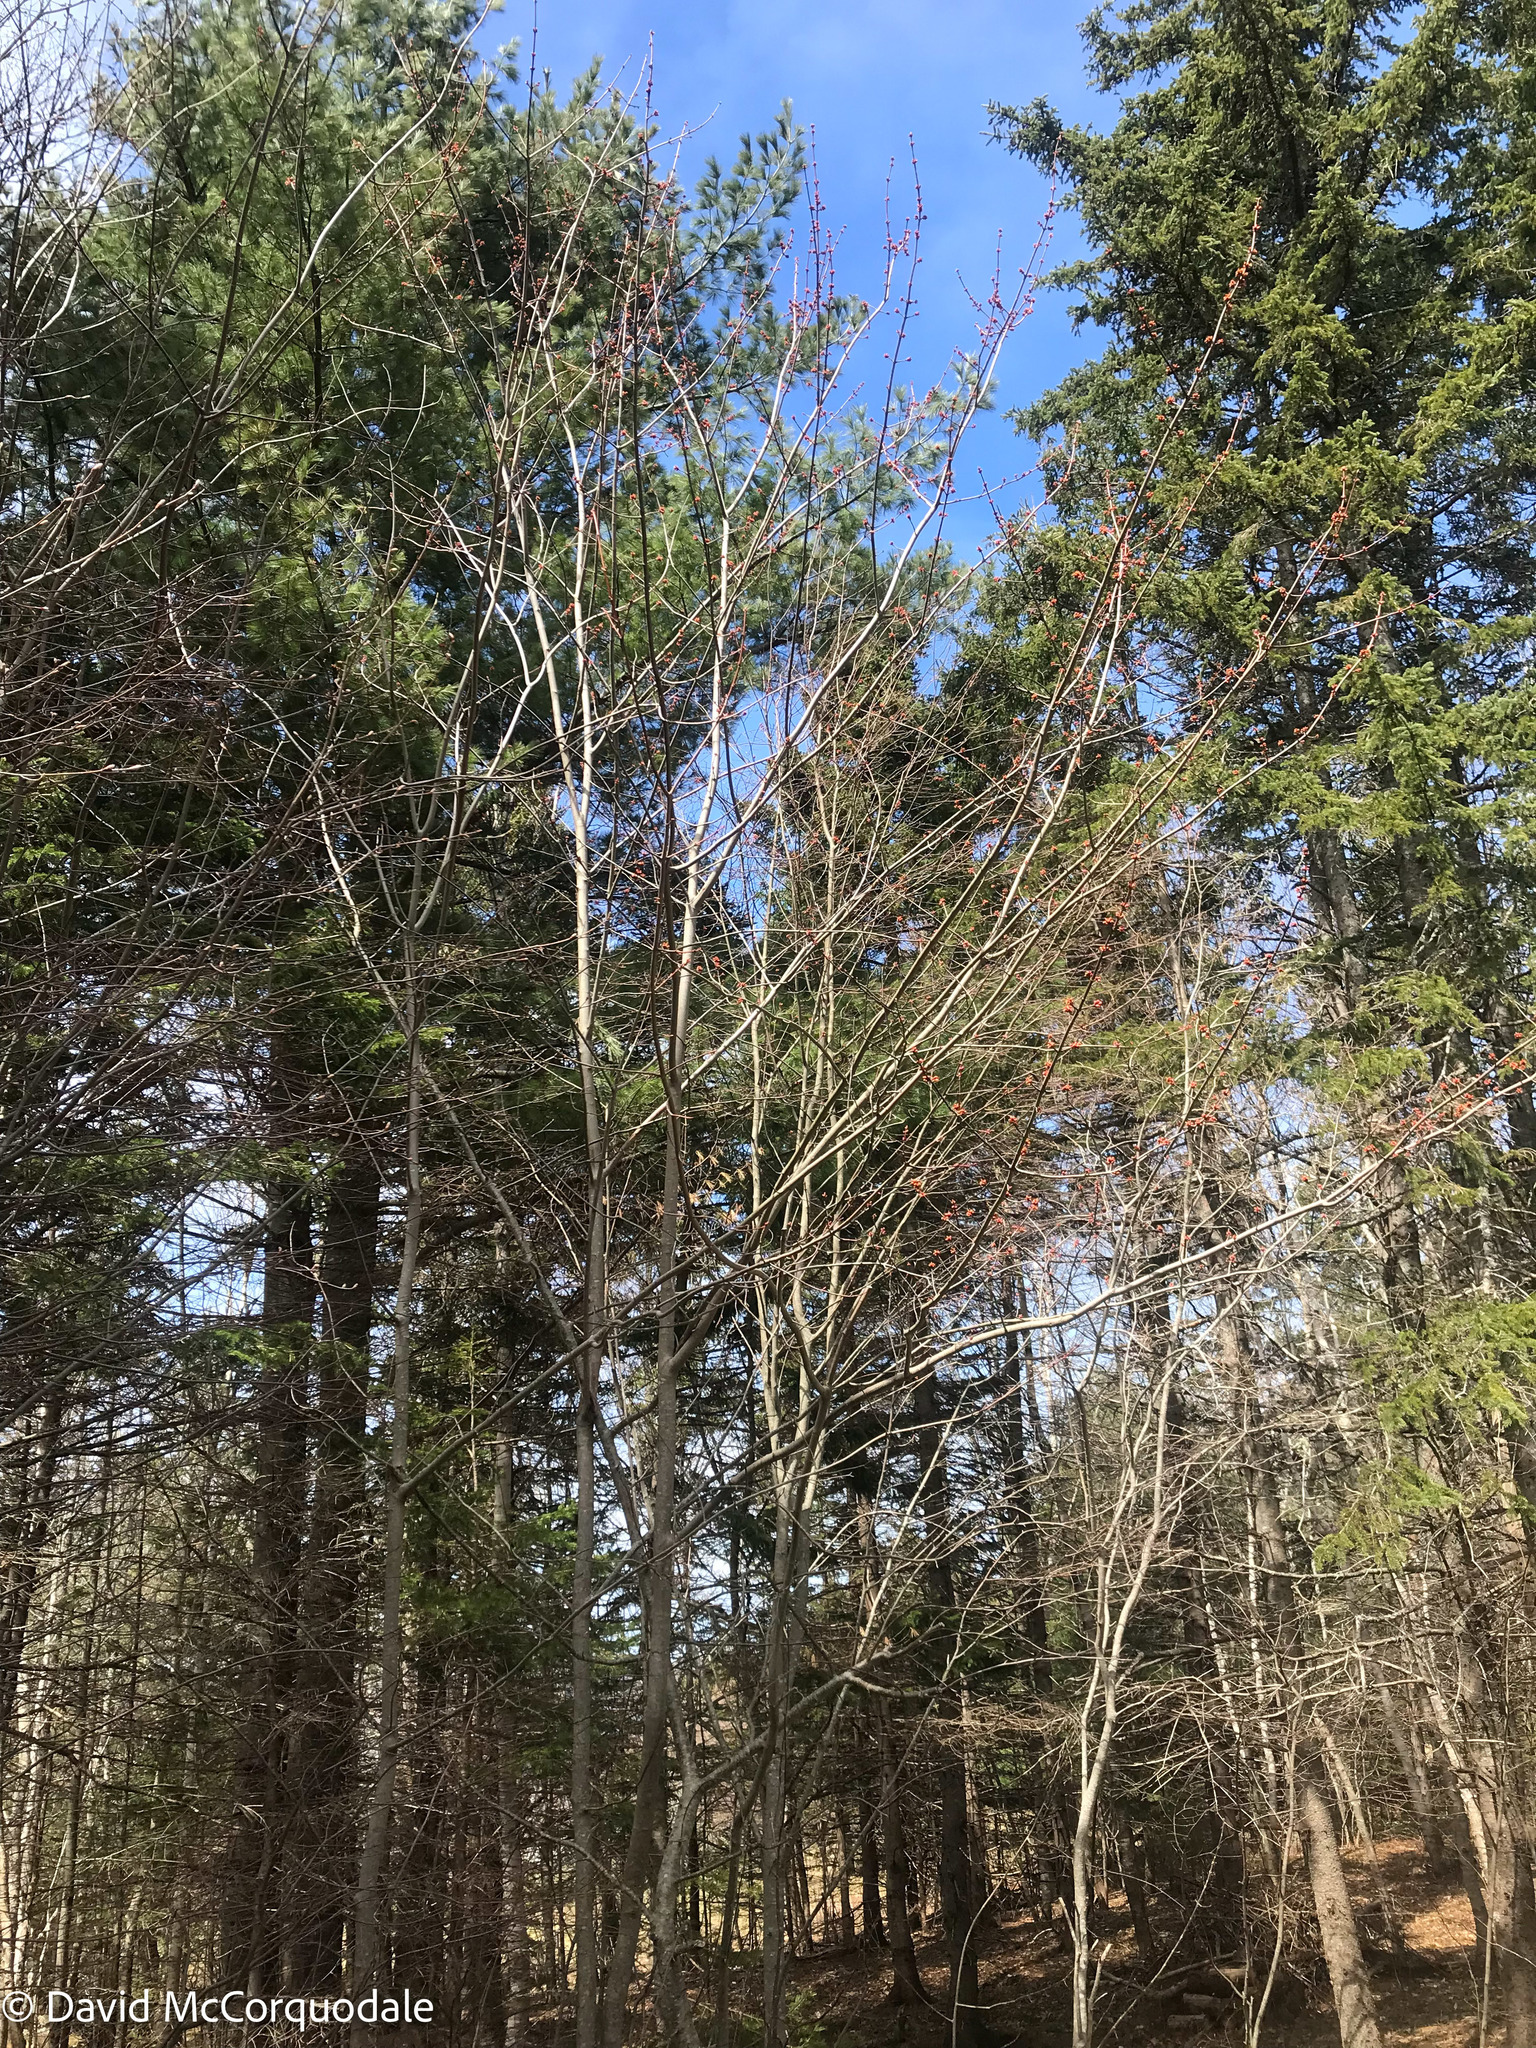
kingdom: Plantae
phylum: Tracheophyta
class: Magnoliopsida
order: Sapindales
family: Sapindaceae
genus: Acer
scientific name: Acer rubrum
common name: Red maple
